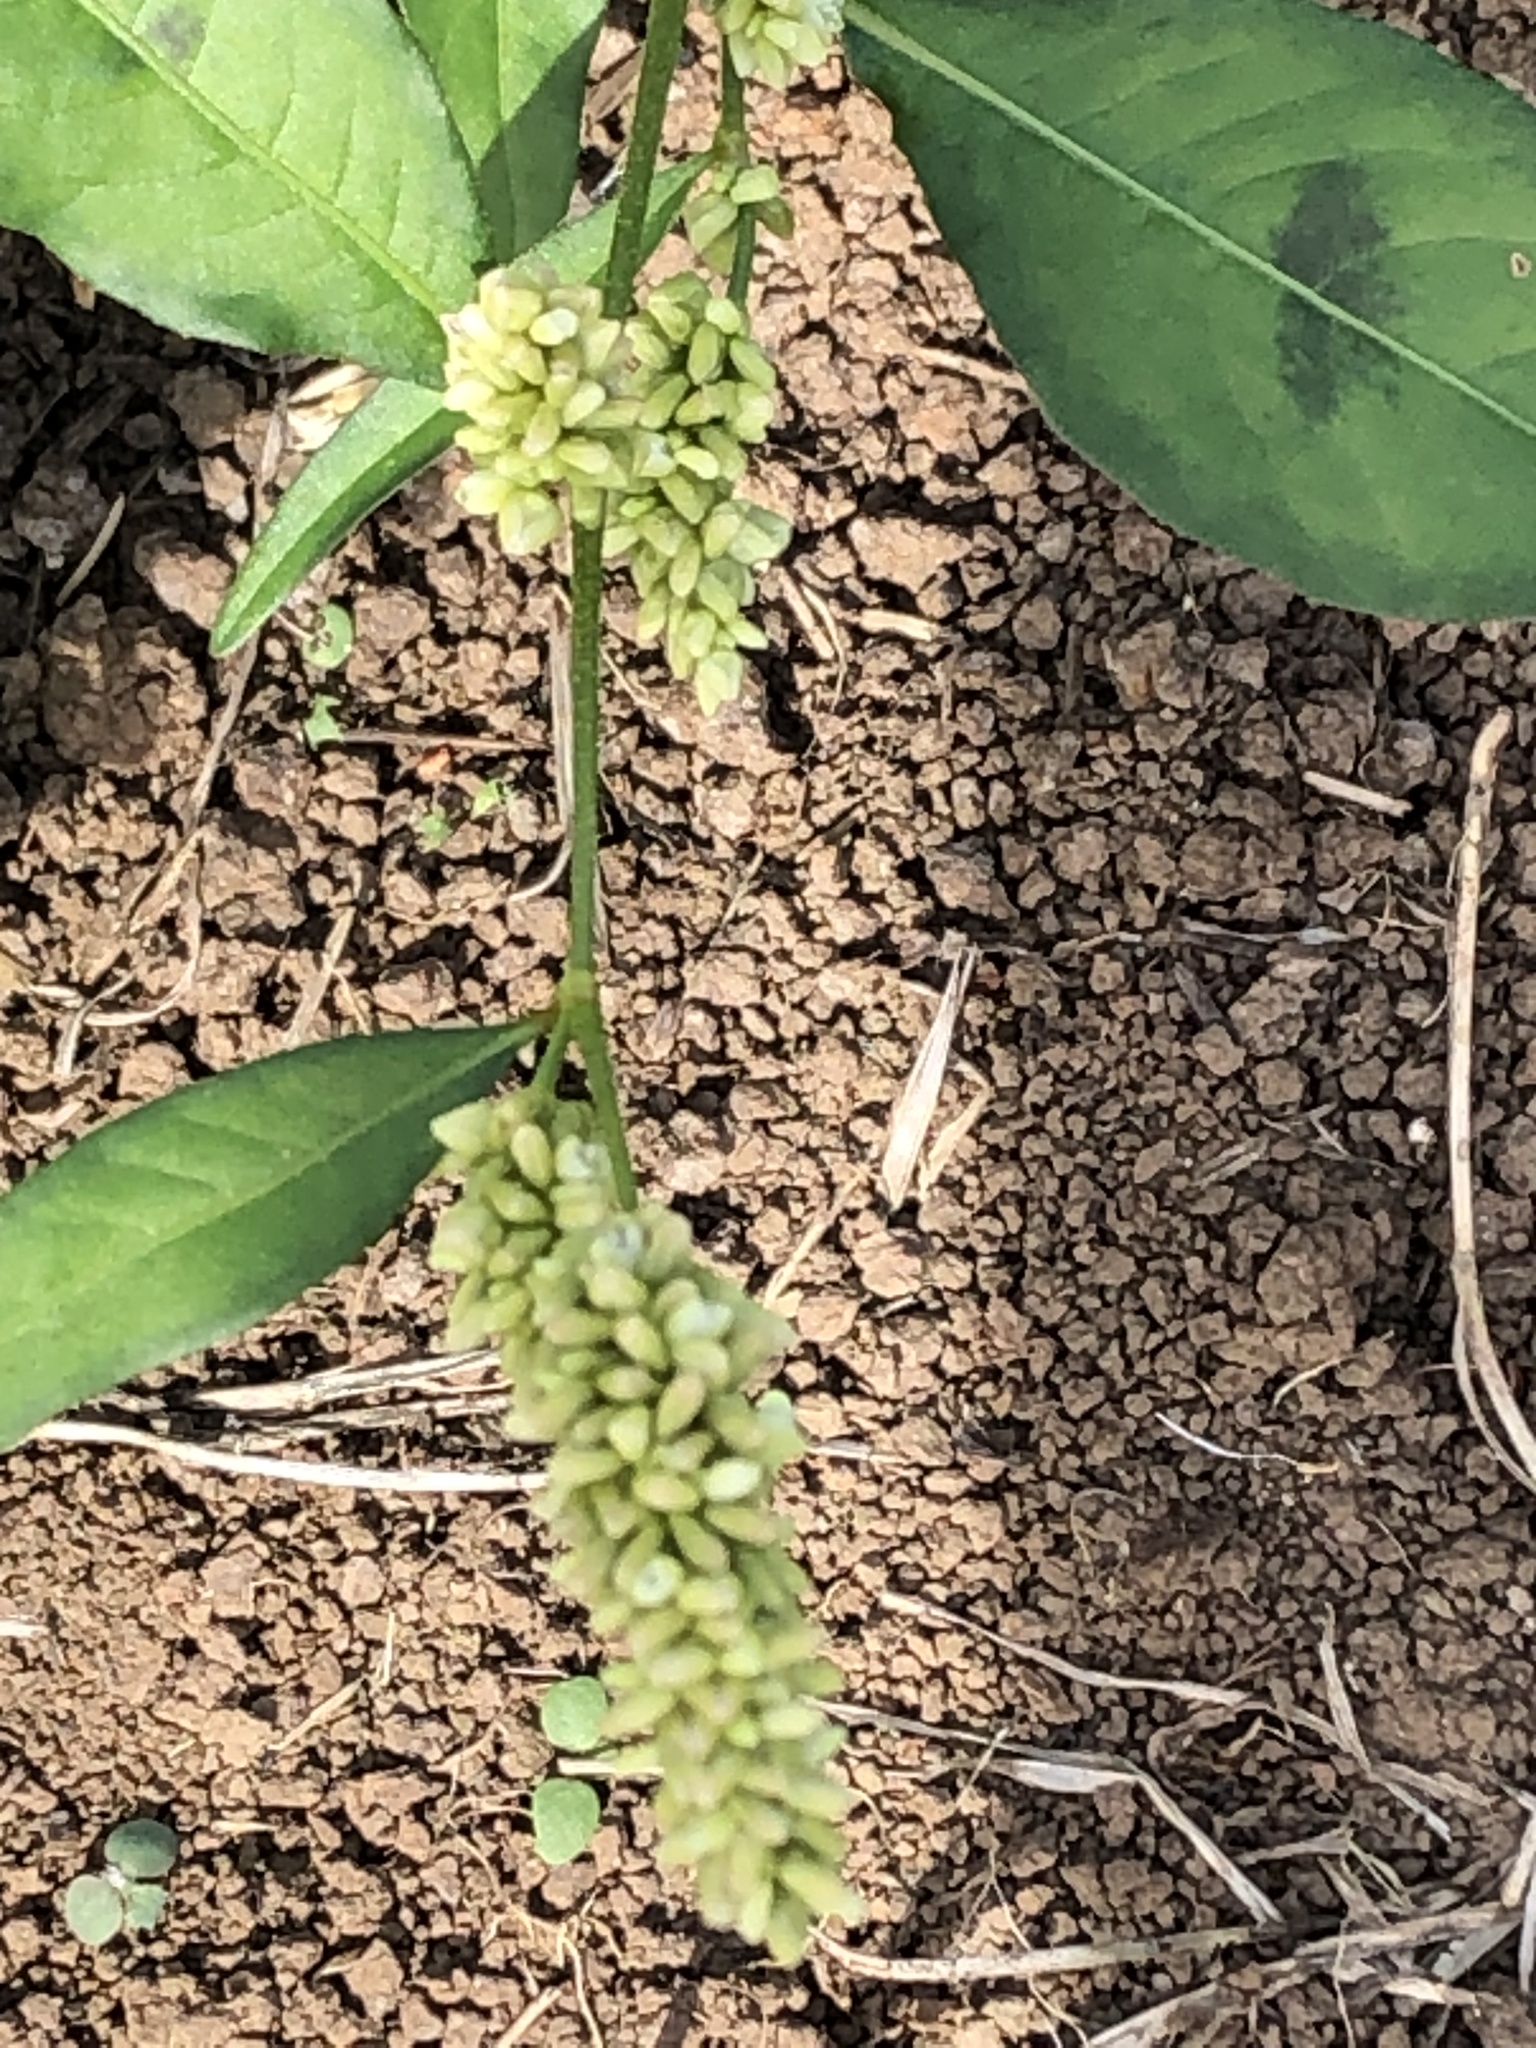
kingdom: Plantae
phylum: Tracheophyta
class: Liliopsida
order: Poales
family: Poaceae
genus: Panicum
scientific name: Panicum miliaceum
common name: Common millet
